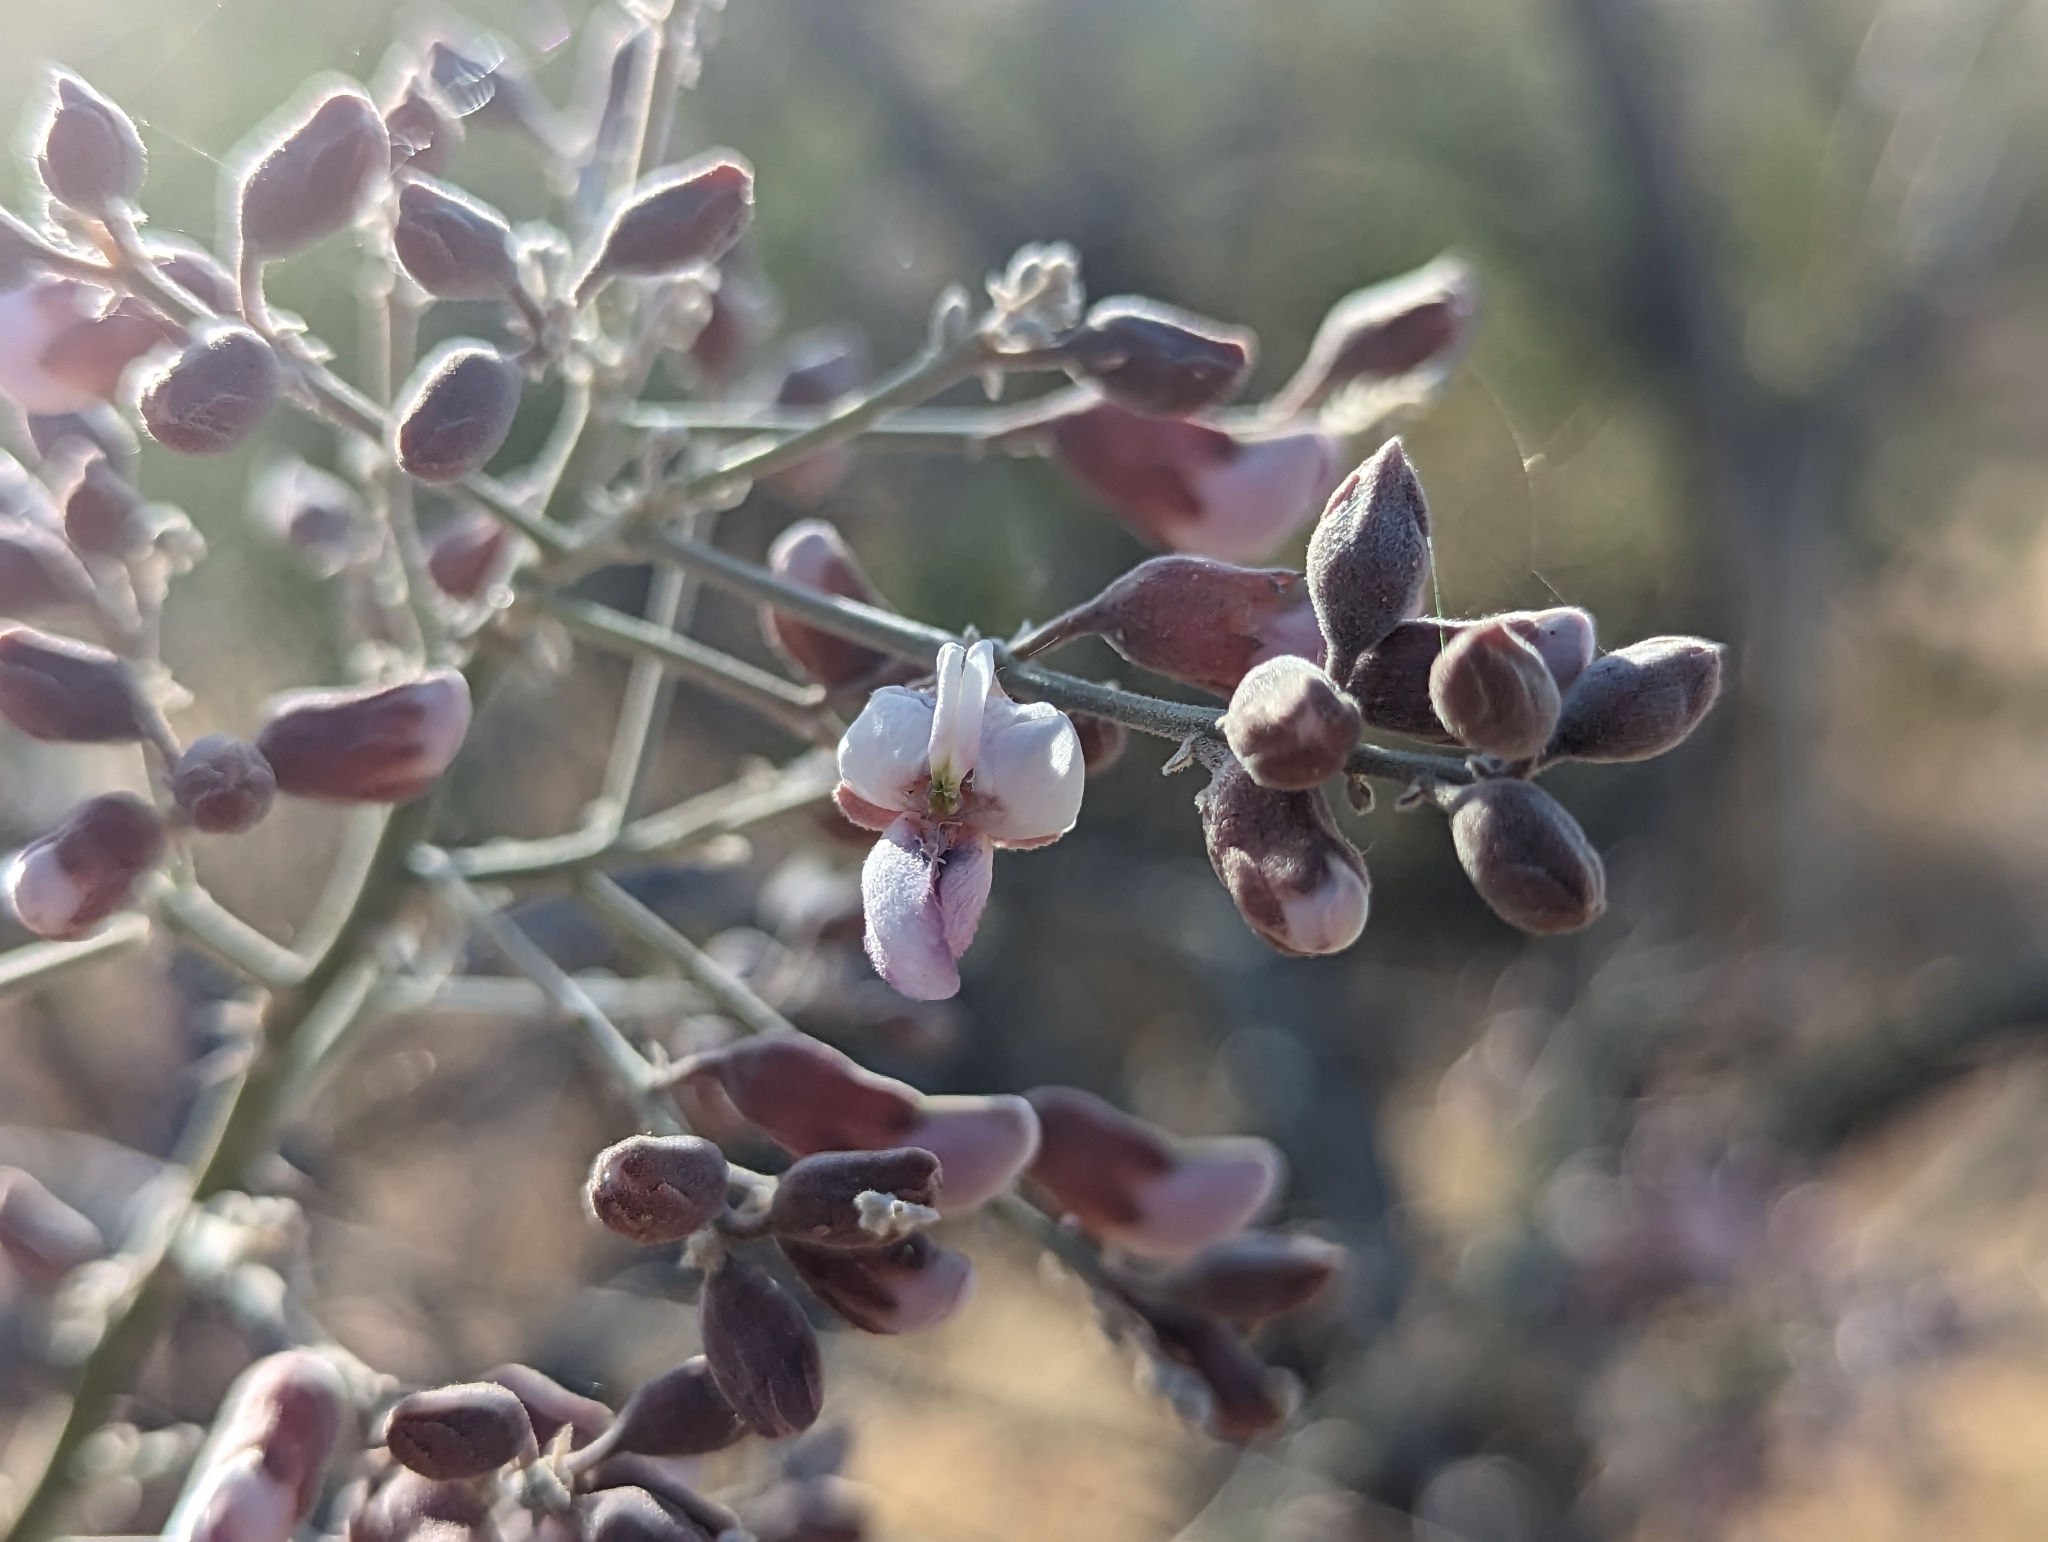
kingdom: Plantae
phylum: Tracheophyta
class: Magnoliopsida
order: Fabales
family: Fabaceae
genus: Olneya
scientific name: Olneya tesota
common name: Desert ironwood
